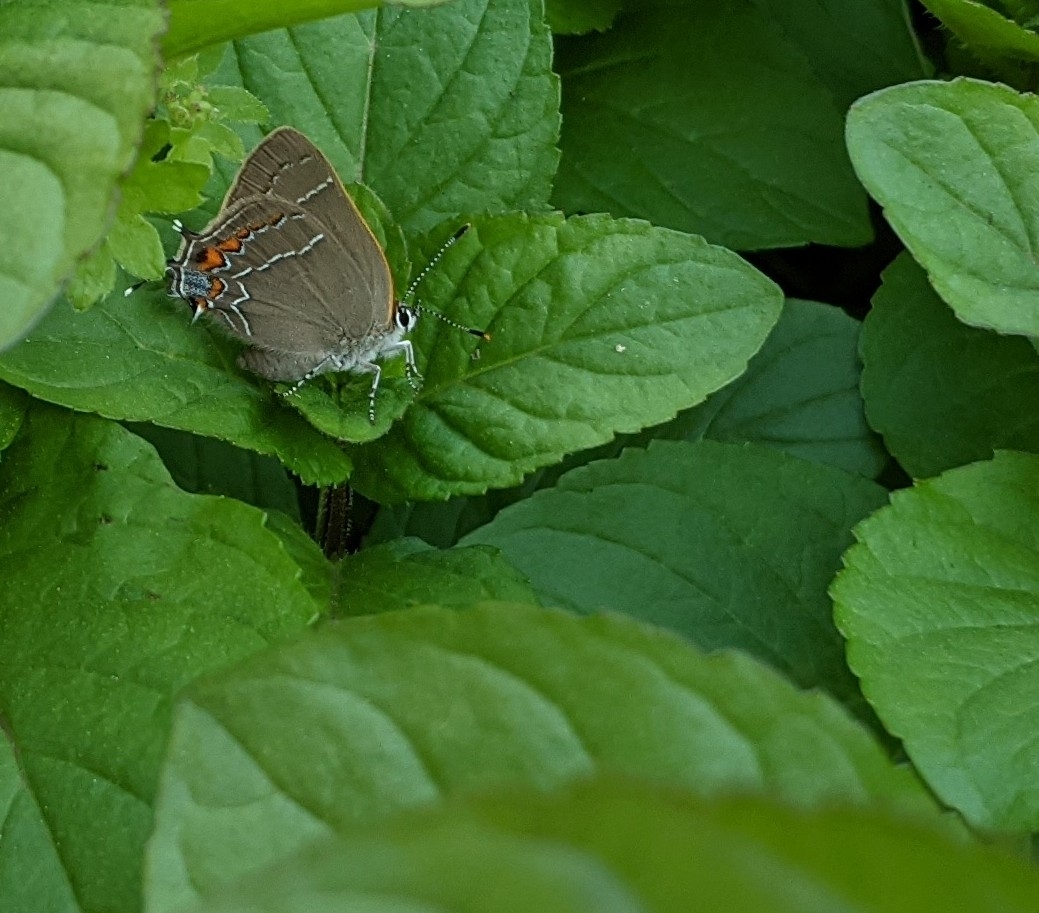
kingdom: Animalia
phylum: Arthropoda
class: Insecta
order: Lepidoptera
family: Lycaenidae
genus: Fixsenia
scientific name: Fixsenia favonius
